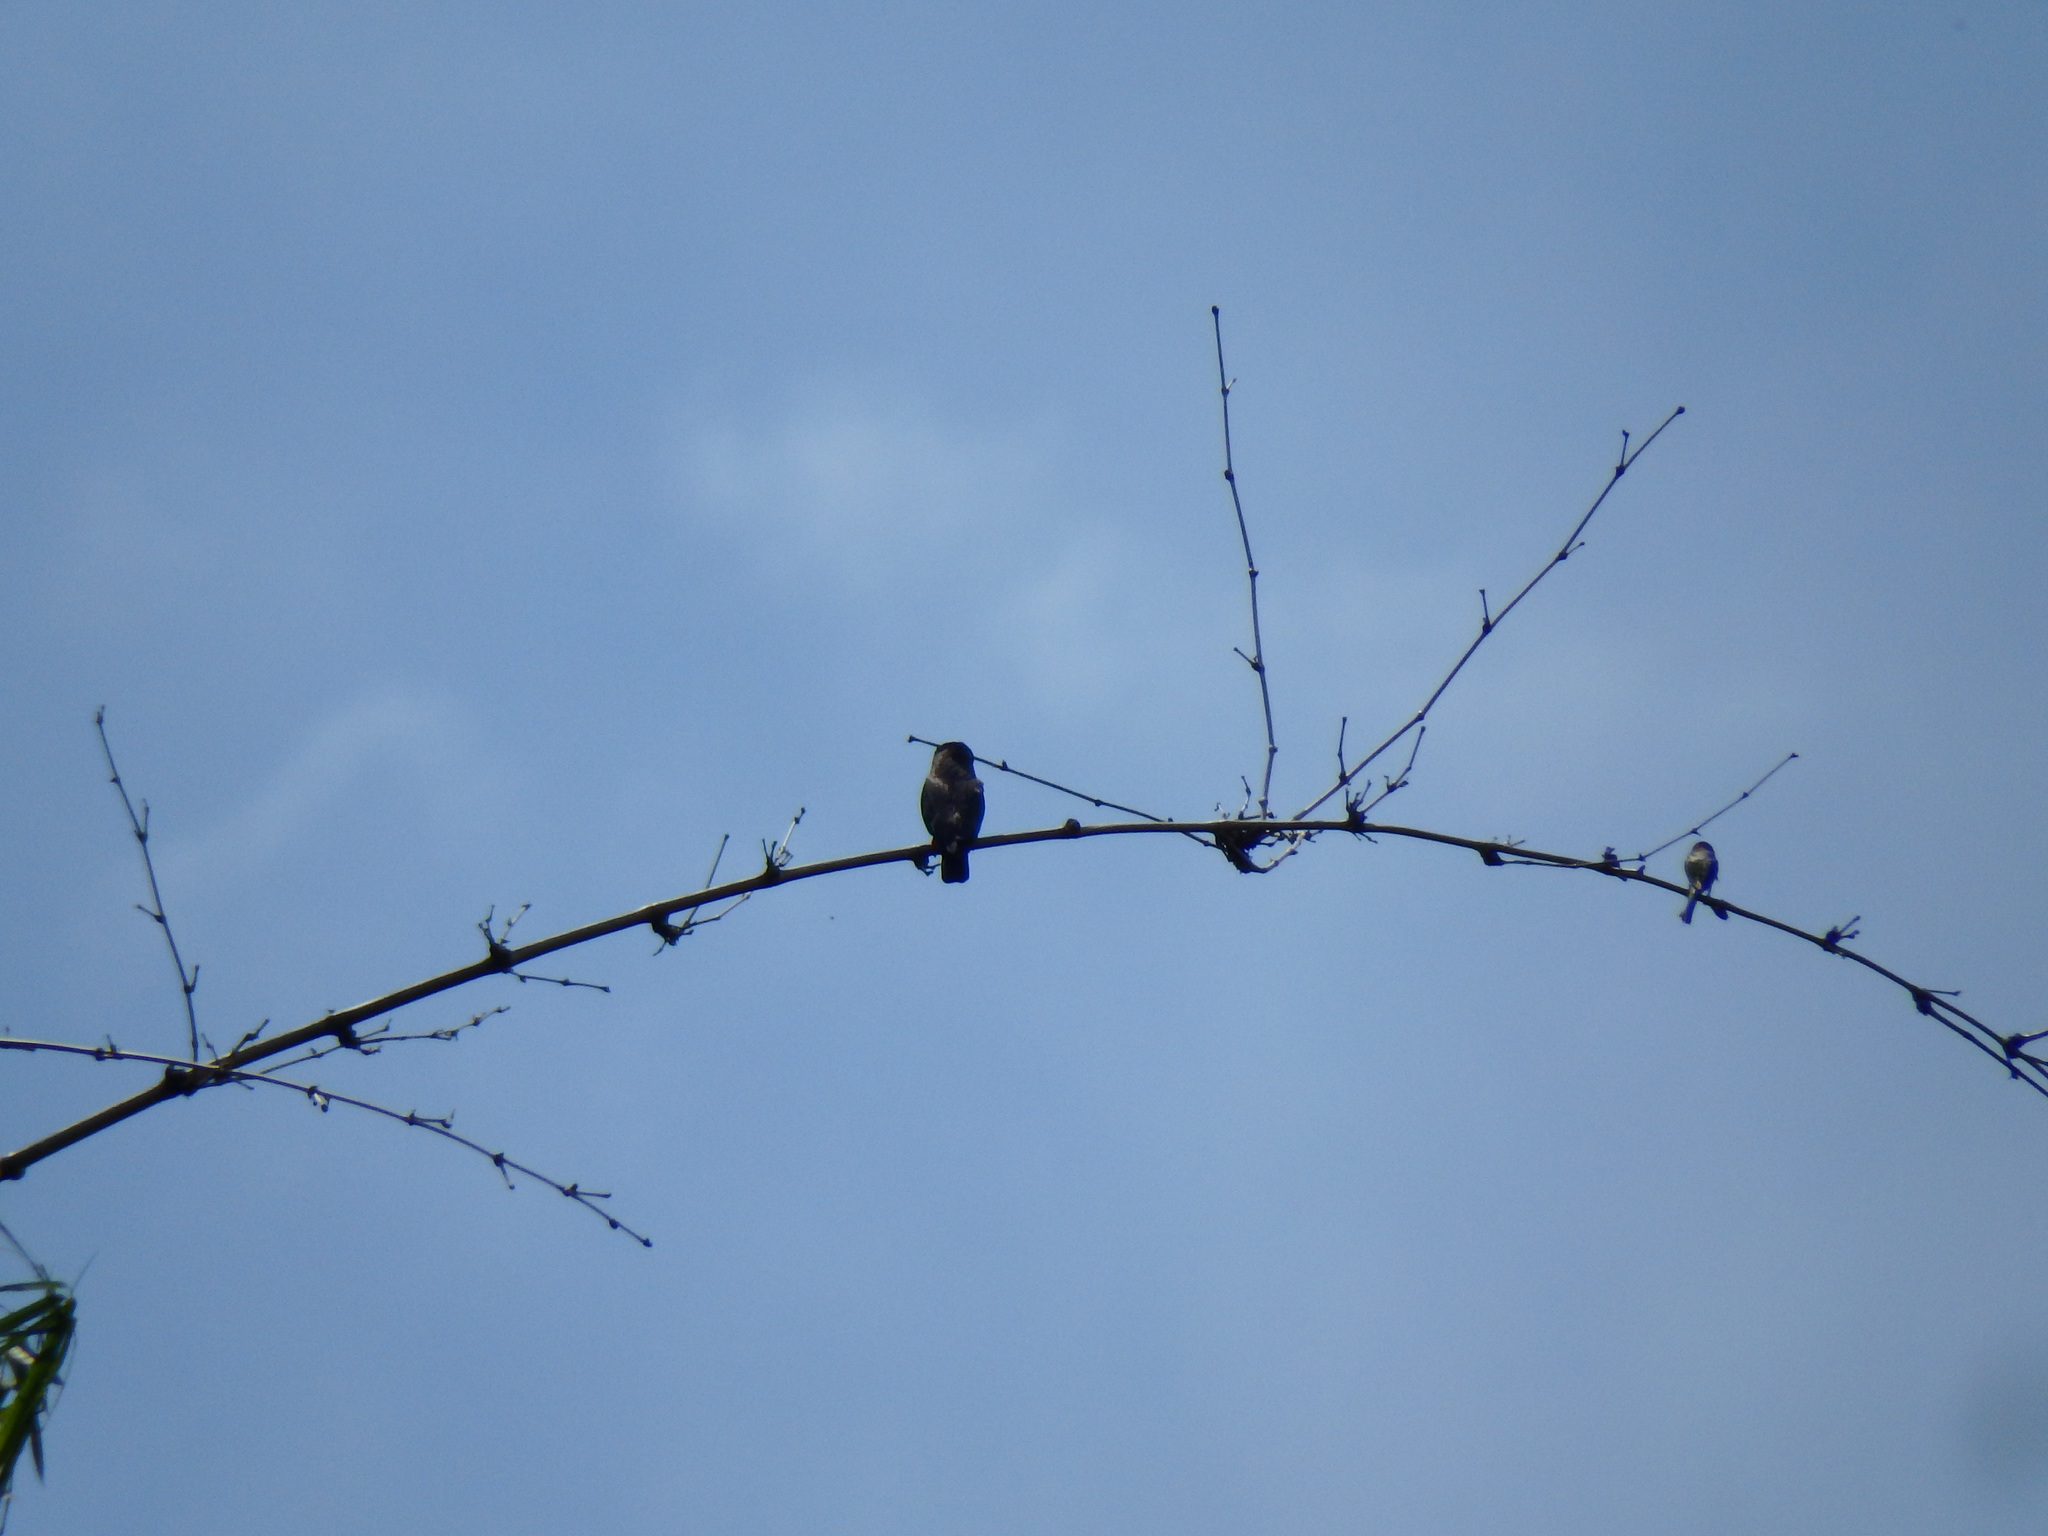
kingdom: Animalia
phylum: Chordata
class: Aves
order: Coraciiformes
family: Meropidae
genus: Merops
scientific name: Merops viridis
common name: Blue-throated bee-eater
